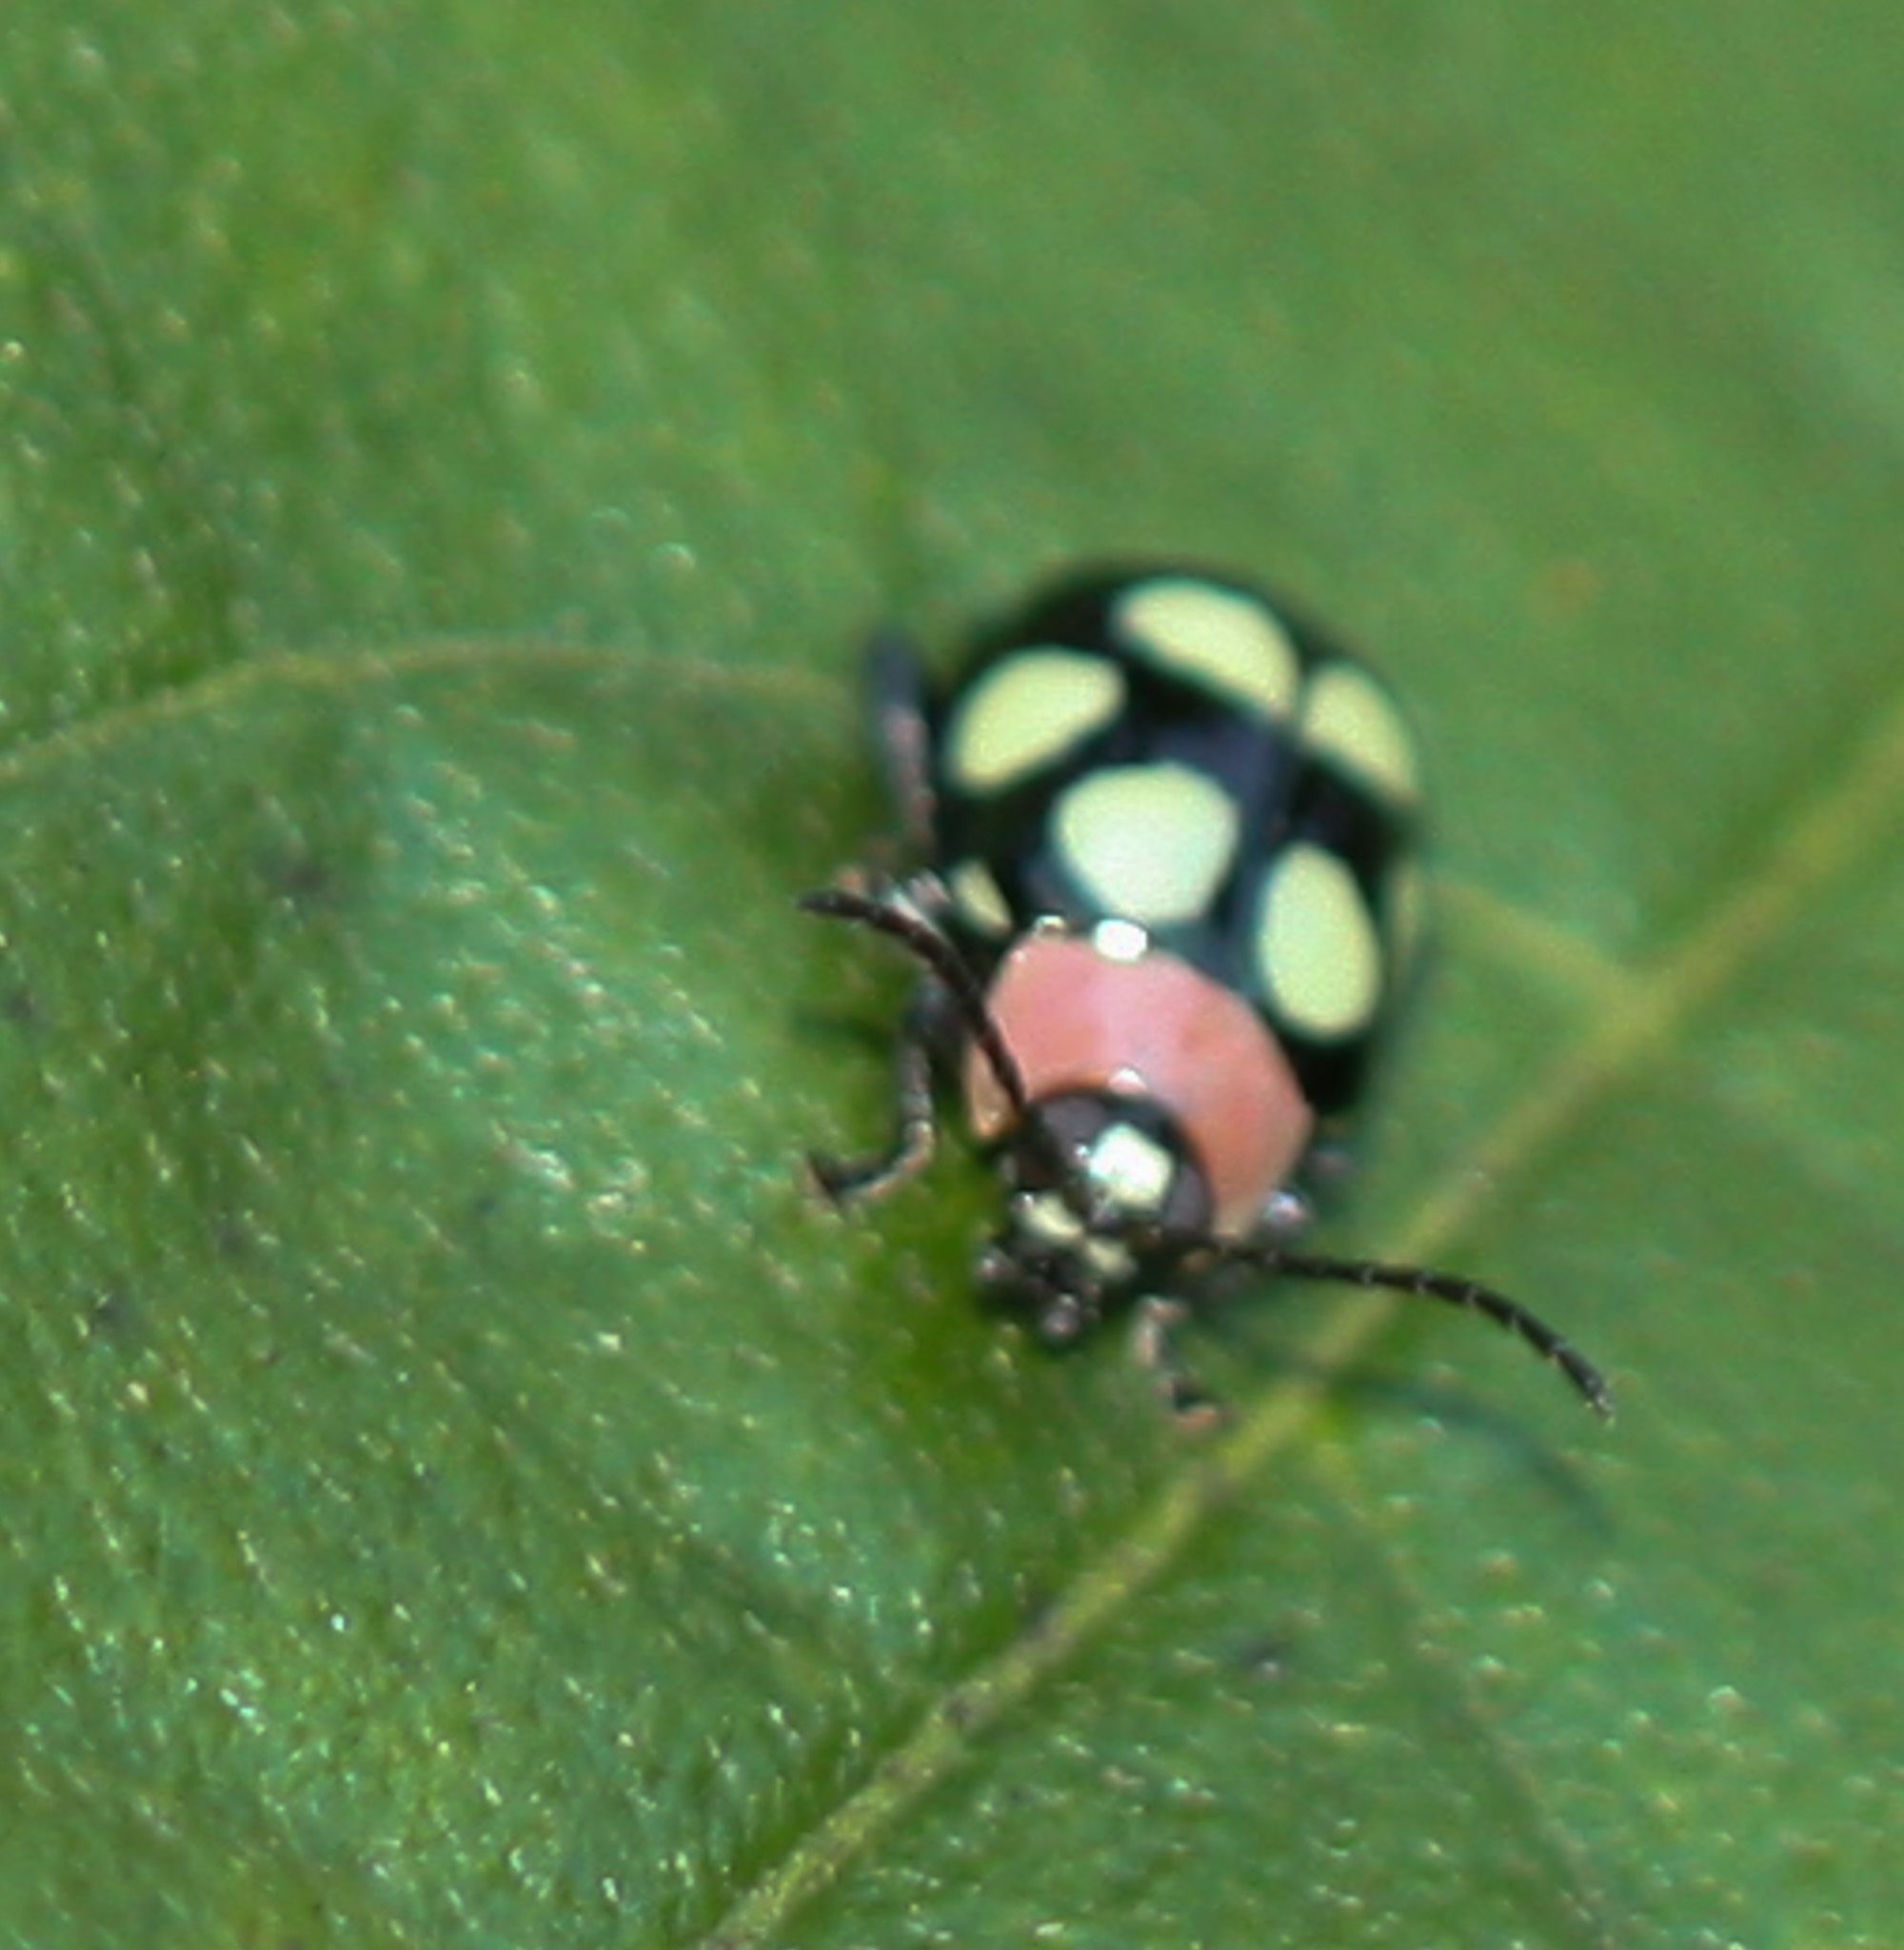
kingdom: Animalia
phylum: Arthropoda
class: Insecta
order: Coleoptera
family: Chrysomelidae
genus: Omophoita
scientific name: Omophoita aequinoctialis
